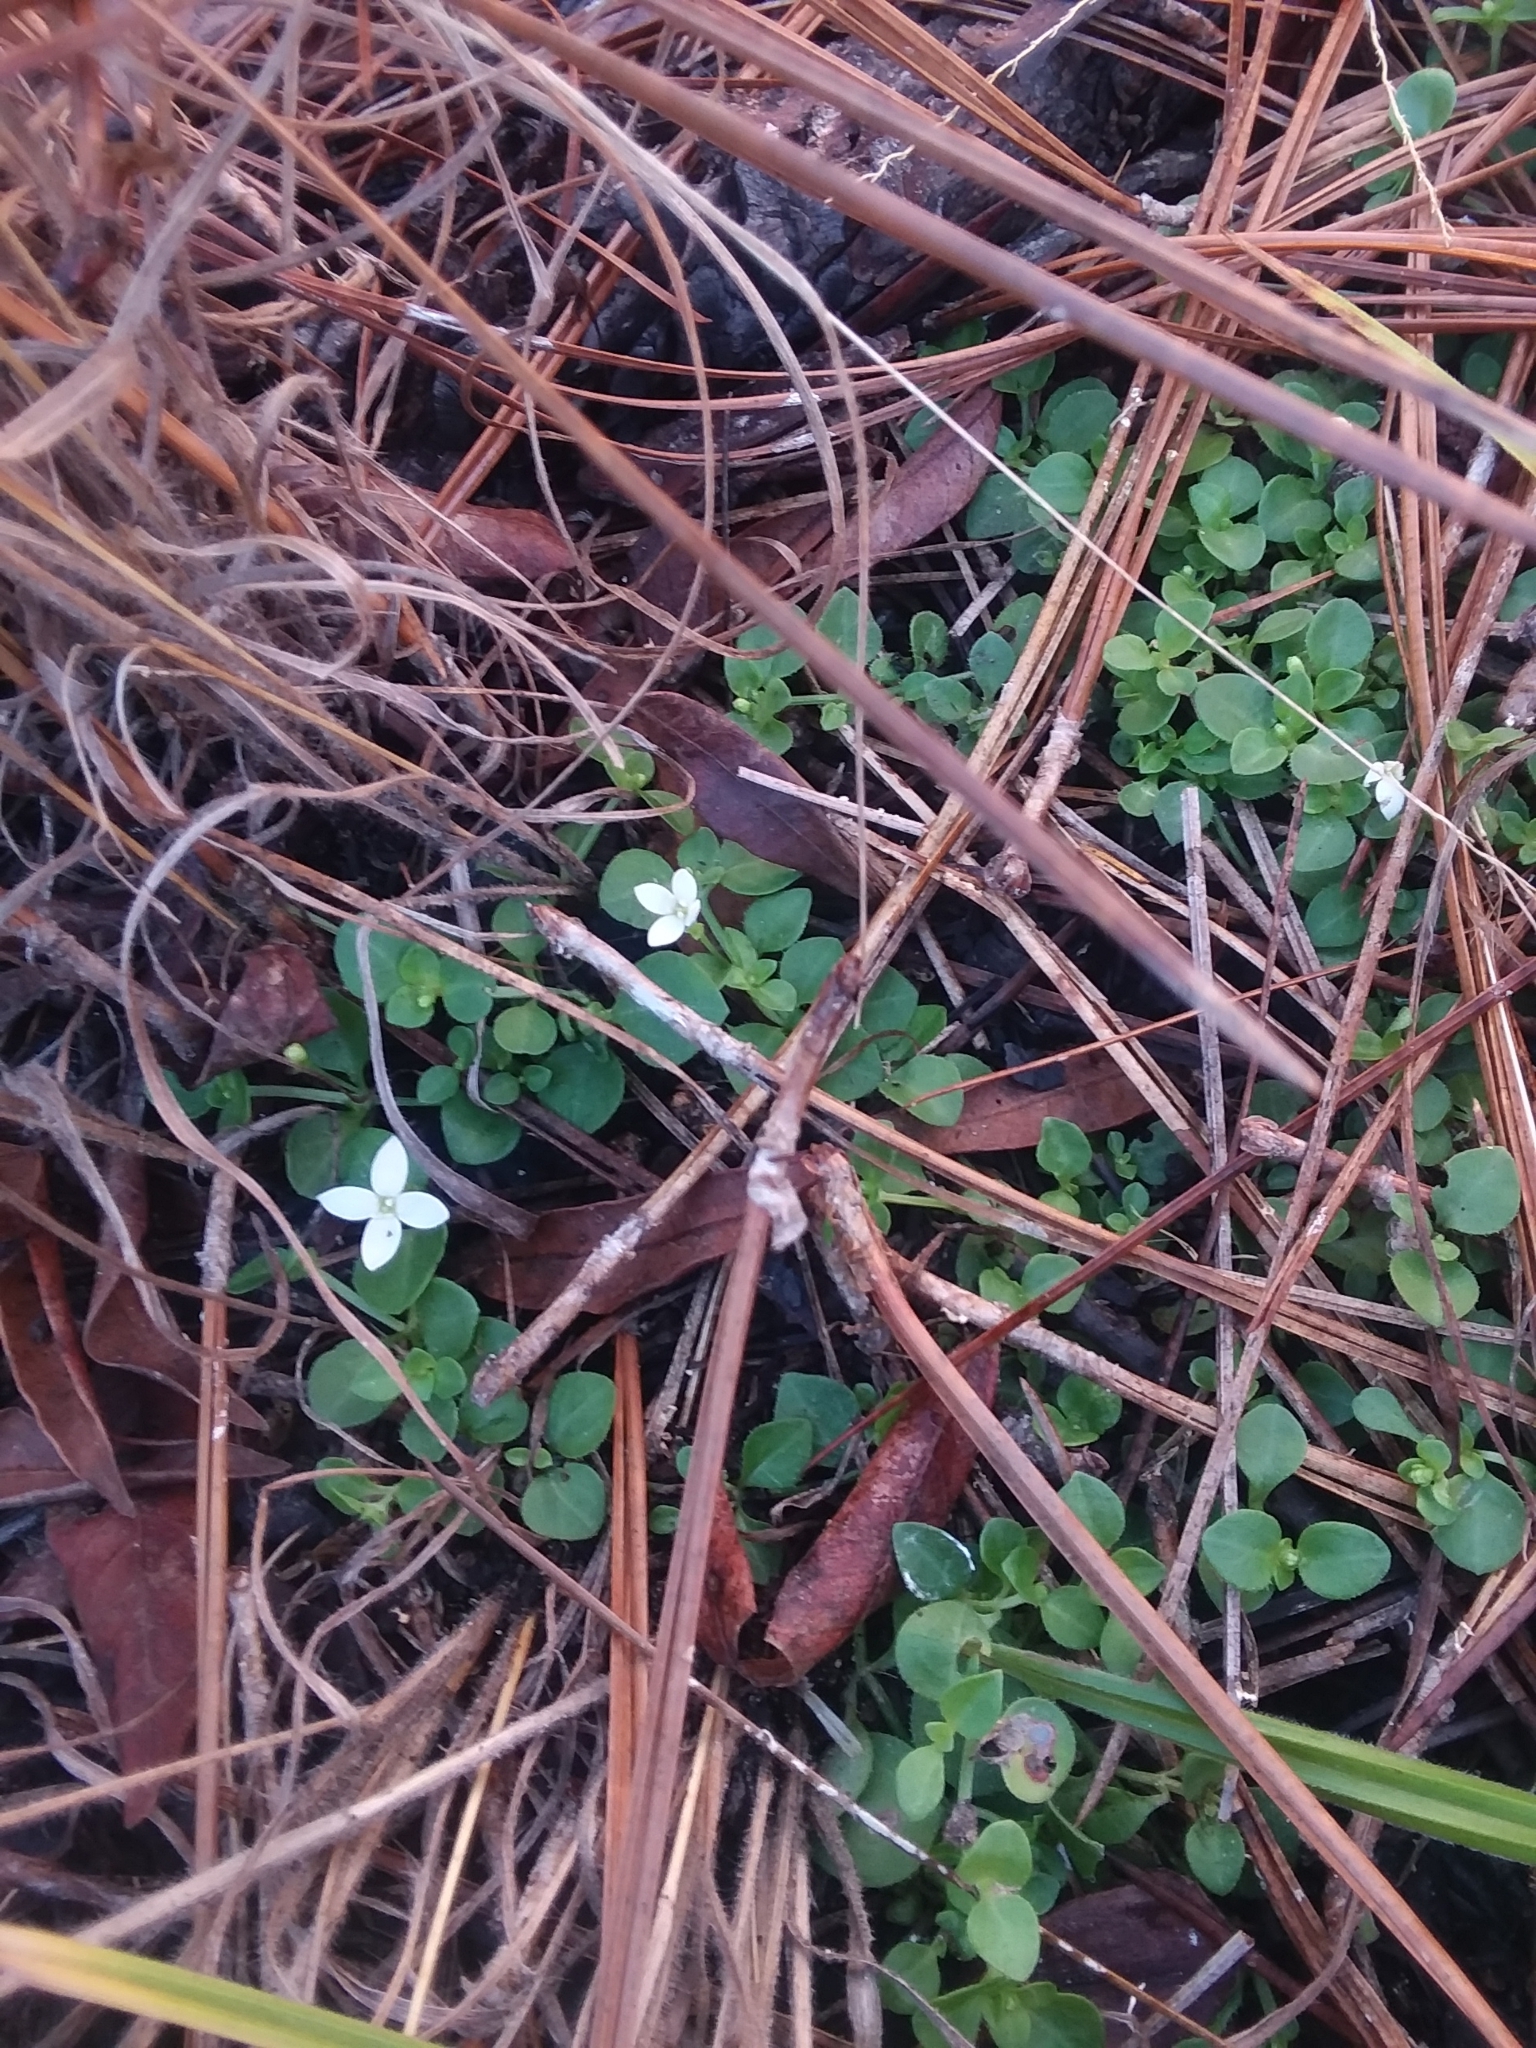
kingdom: Plantae
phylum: Tracheophyta
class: Magnoliopsida
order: Gentianales
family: Rubiaceae
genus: Houstonia
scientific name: Houstonia procumbens
